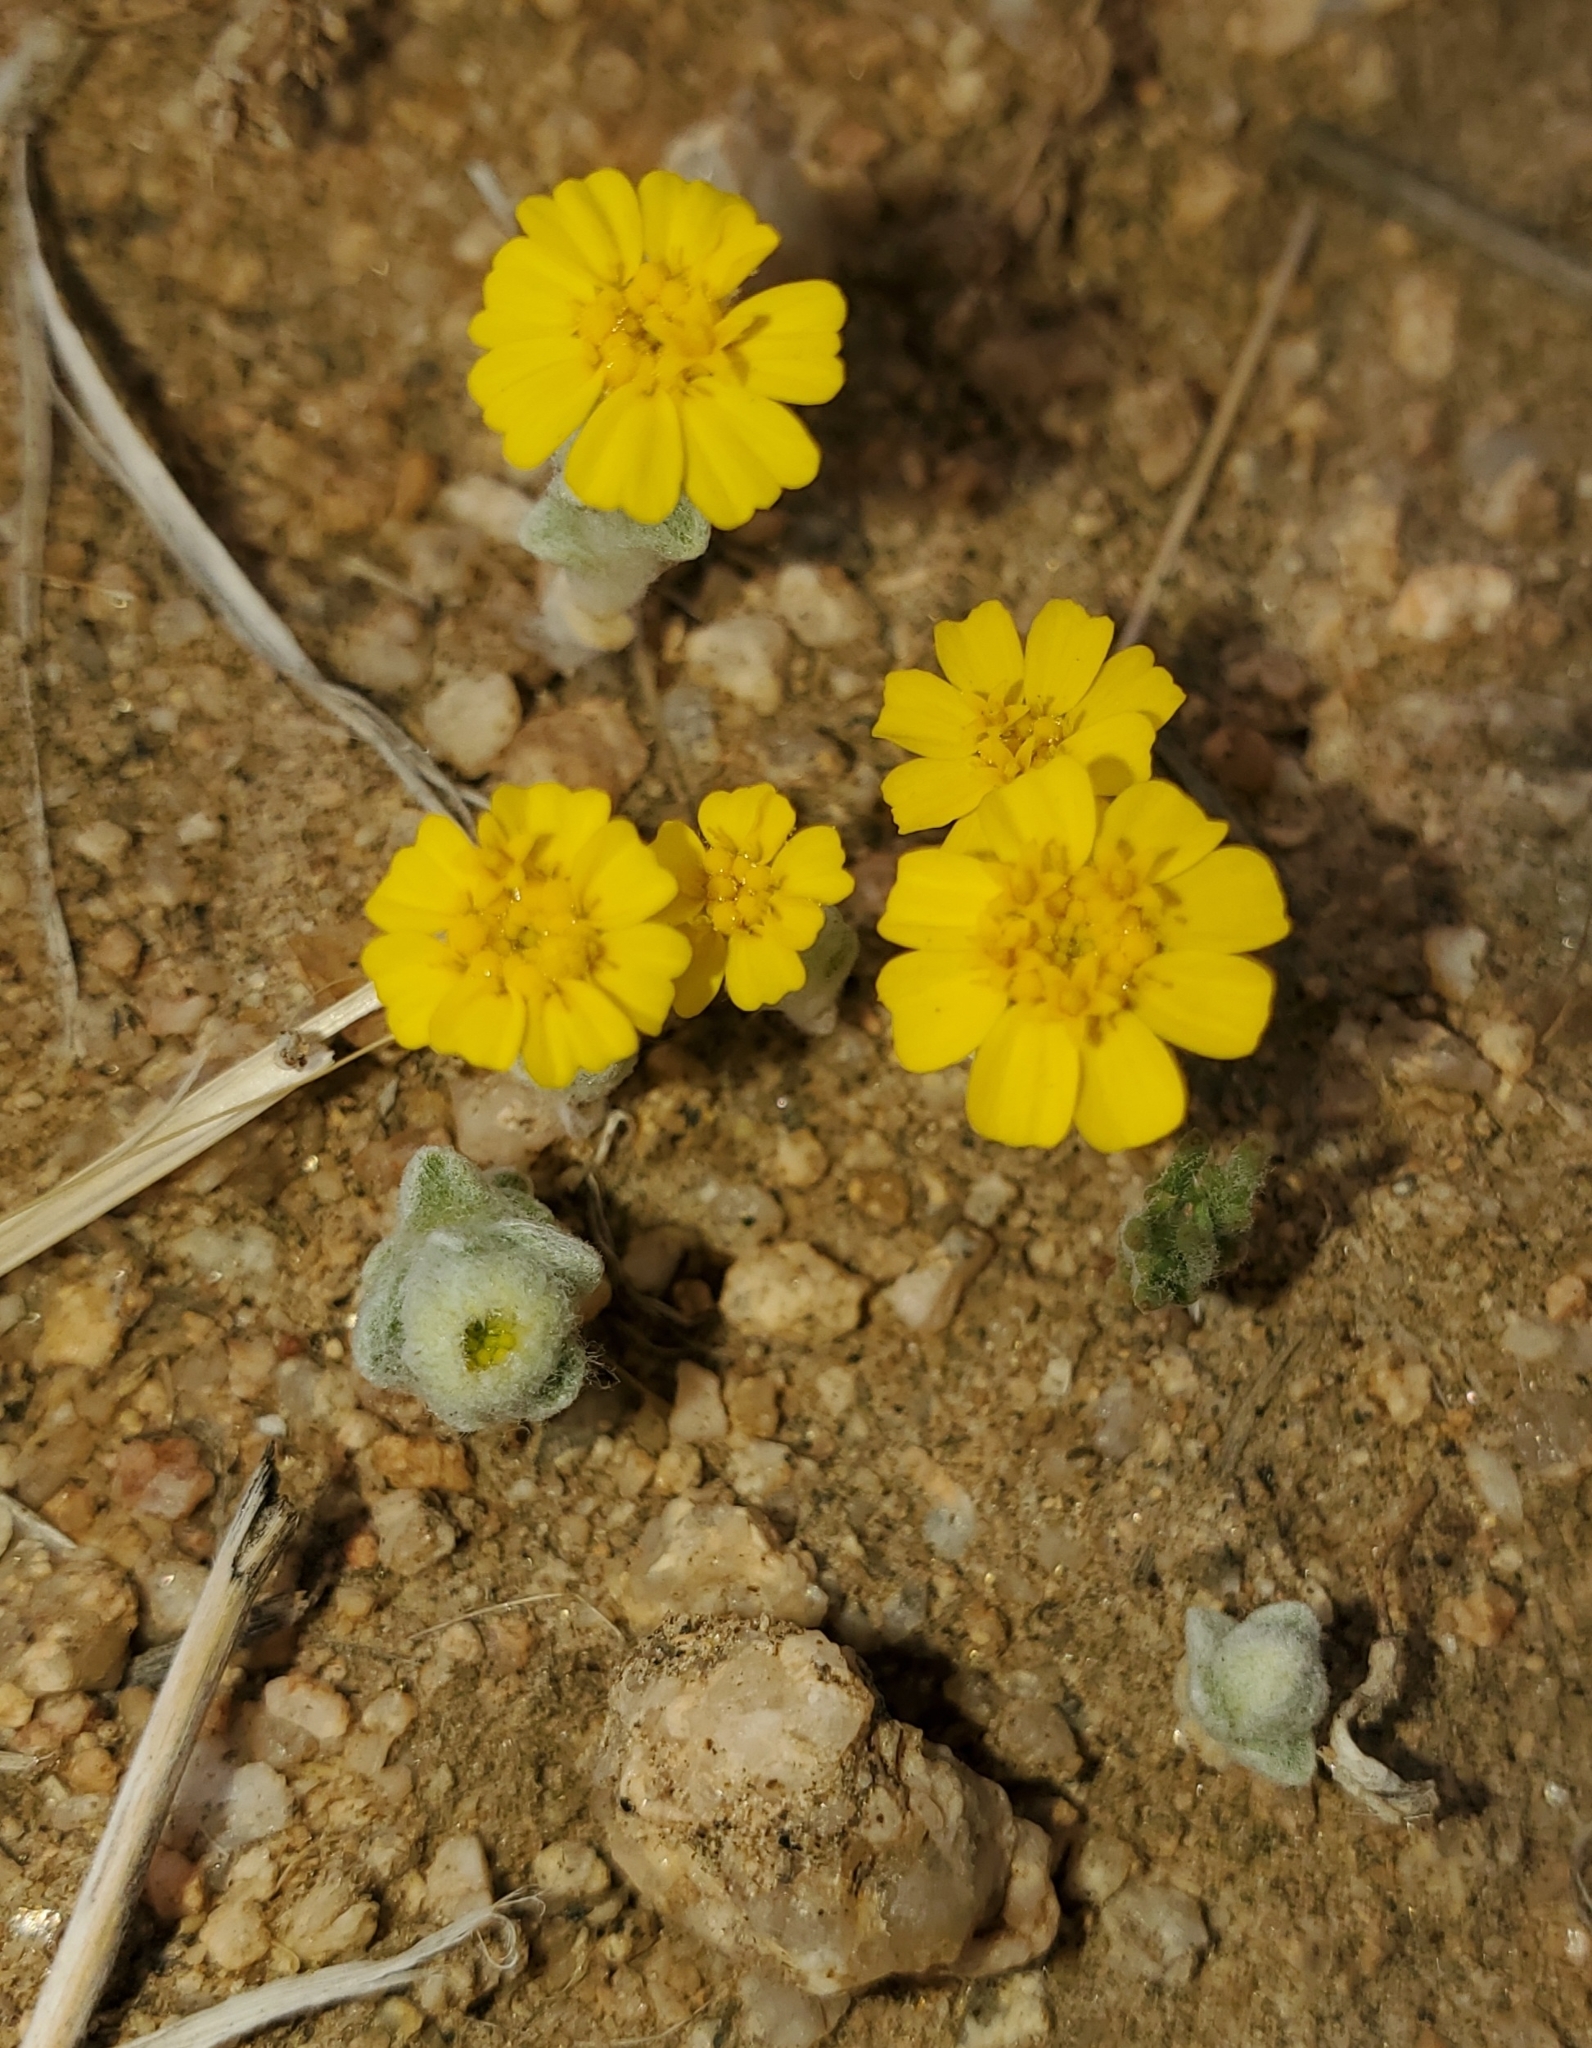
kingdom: Plantae
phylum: Tracheophyta
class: Magnoliopsida
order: Asterales
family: Asteraceae
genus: Eriophyllum
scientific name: Eriophyllum wallacei
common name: Wallace's woolly daisy
